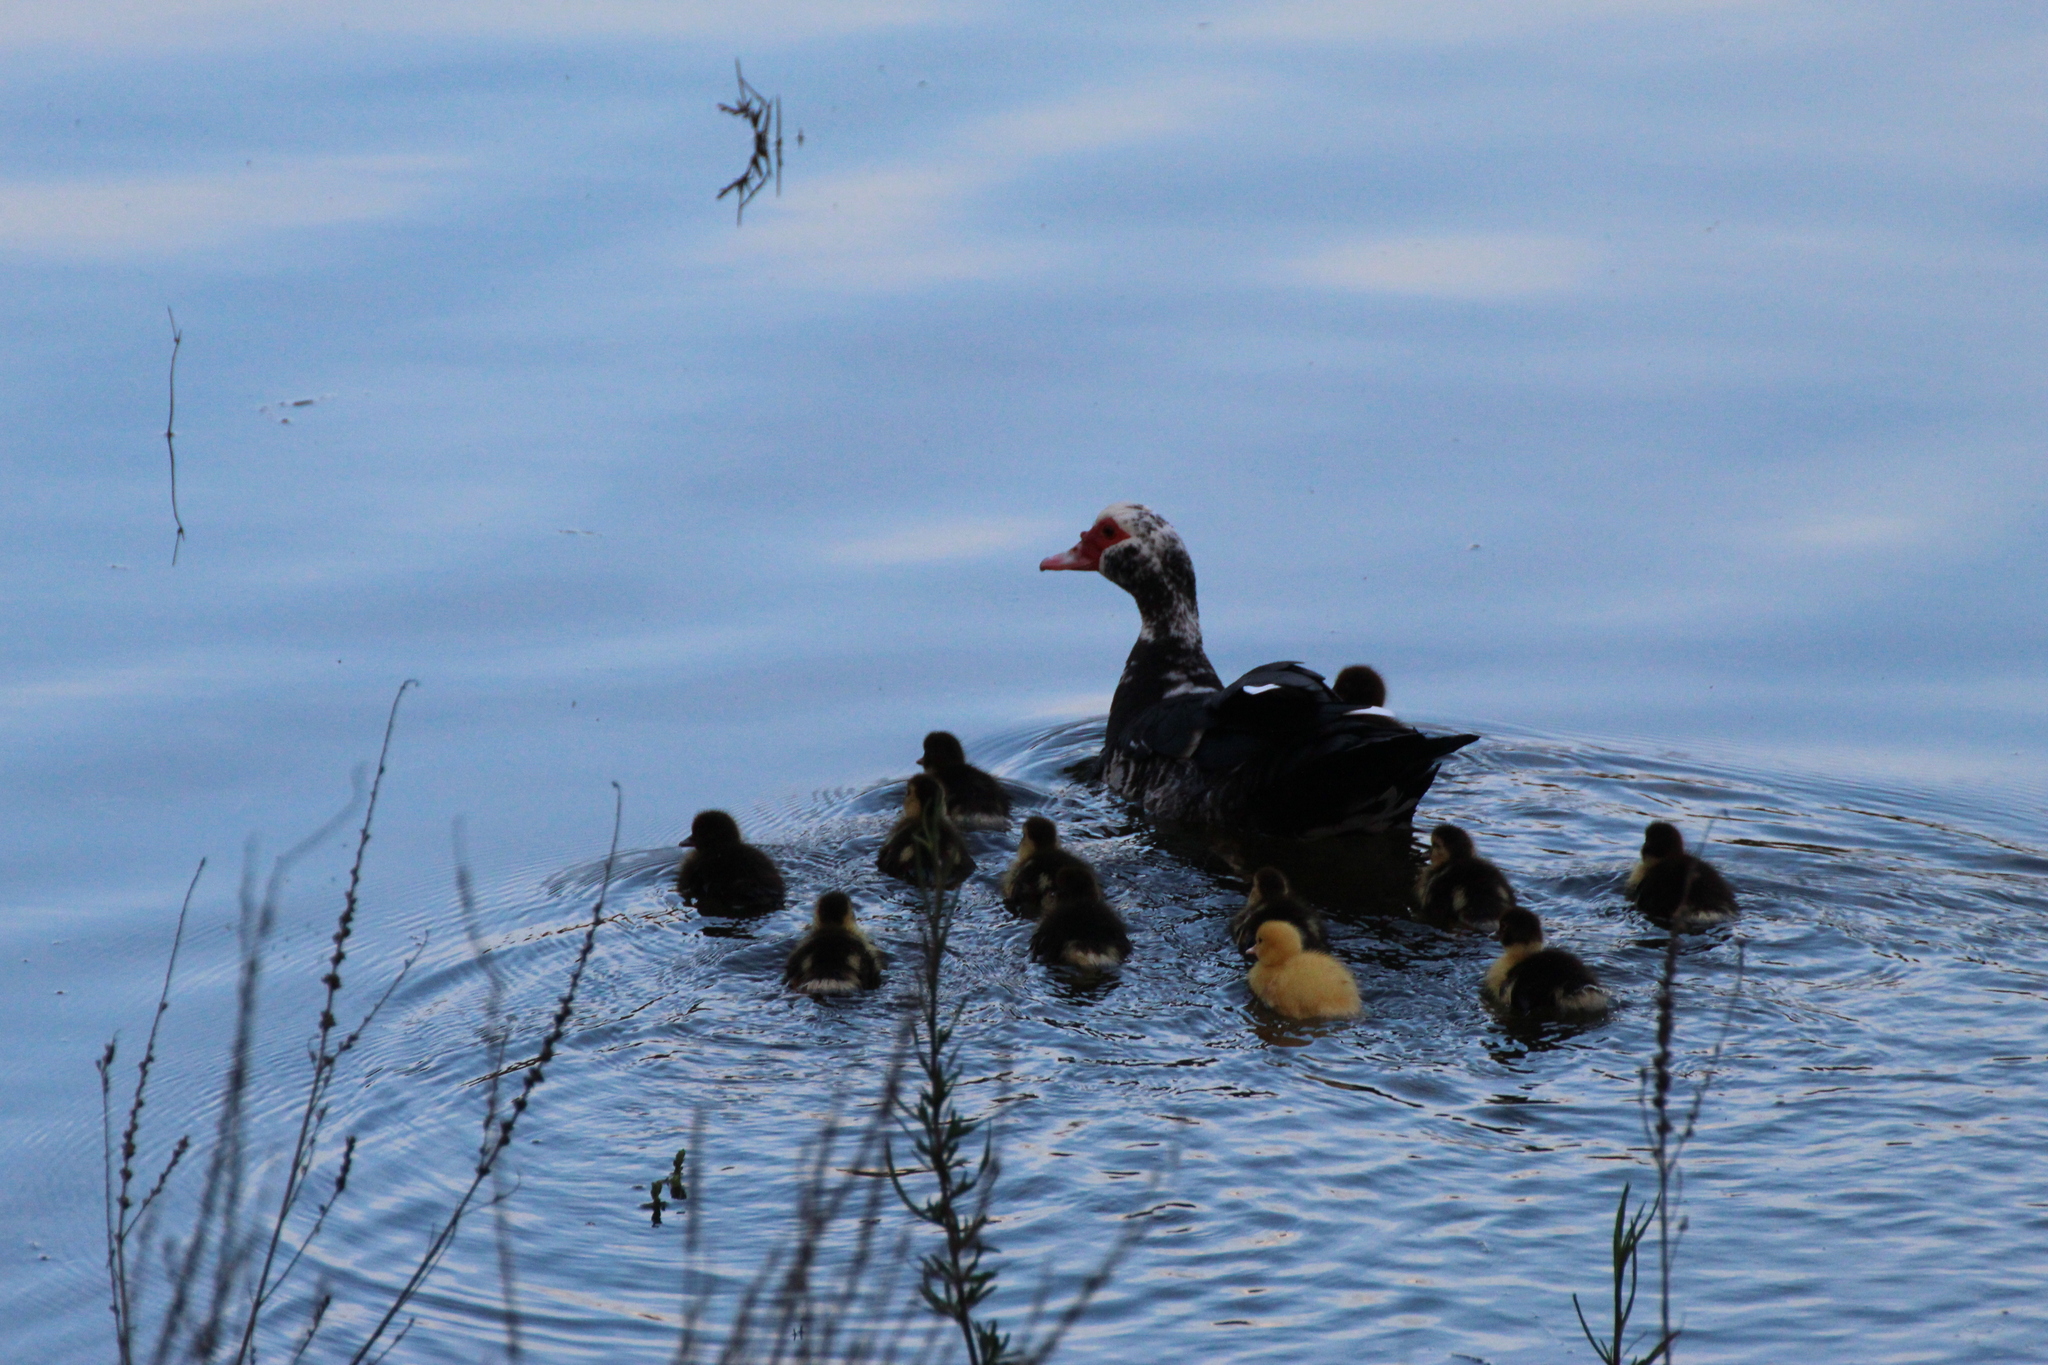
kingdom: Animalia
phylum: Chordata
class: Aves
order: Anseriformes
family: Anatidae
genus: Cairina
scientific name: Cairina moschata
